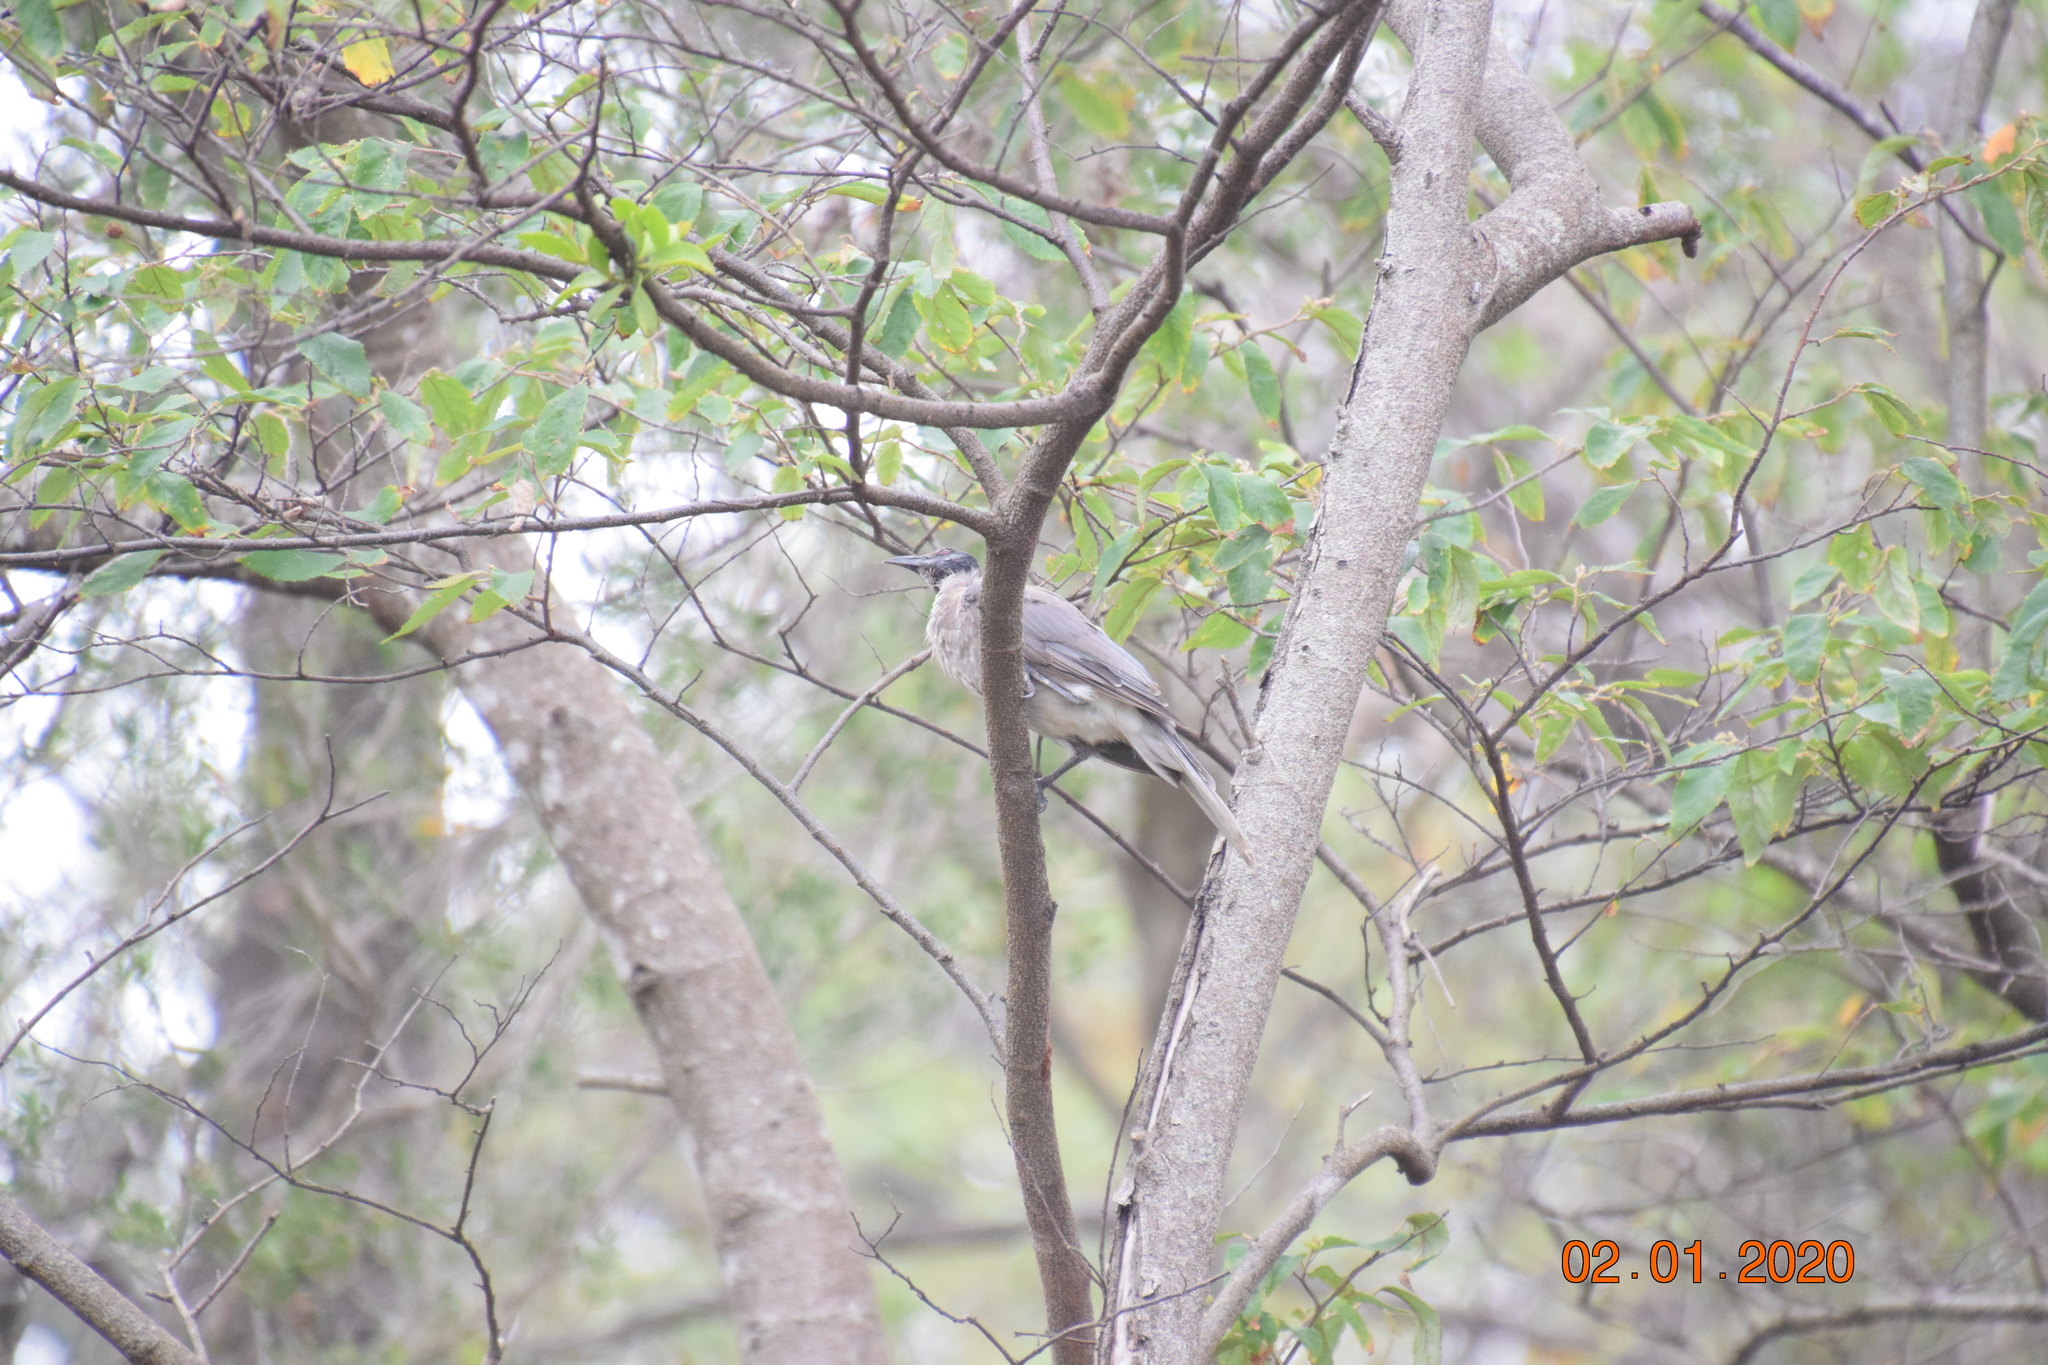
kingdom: Animalia
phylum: Chordata
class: Aves
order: Passeriformes
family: Meliphagidae
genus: Philemon
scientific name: Philemon corniculatus
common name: Noisy friarbird
